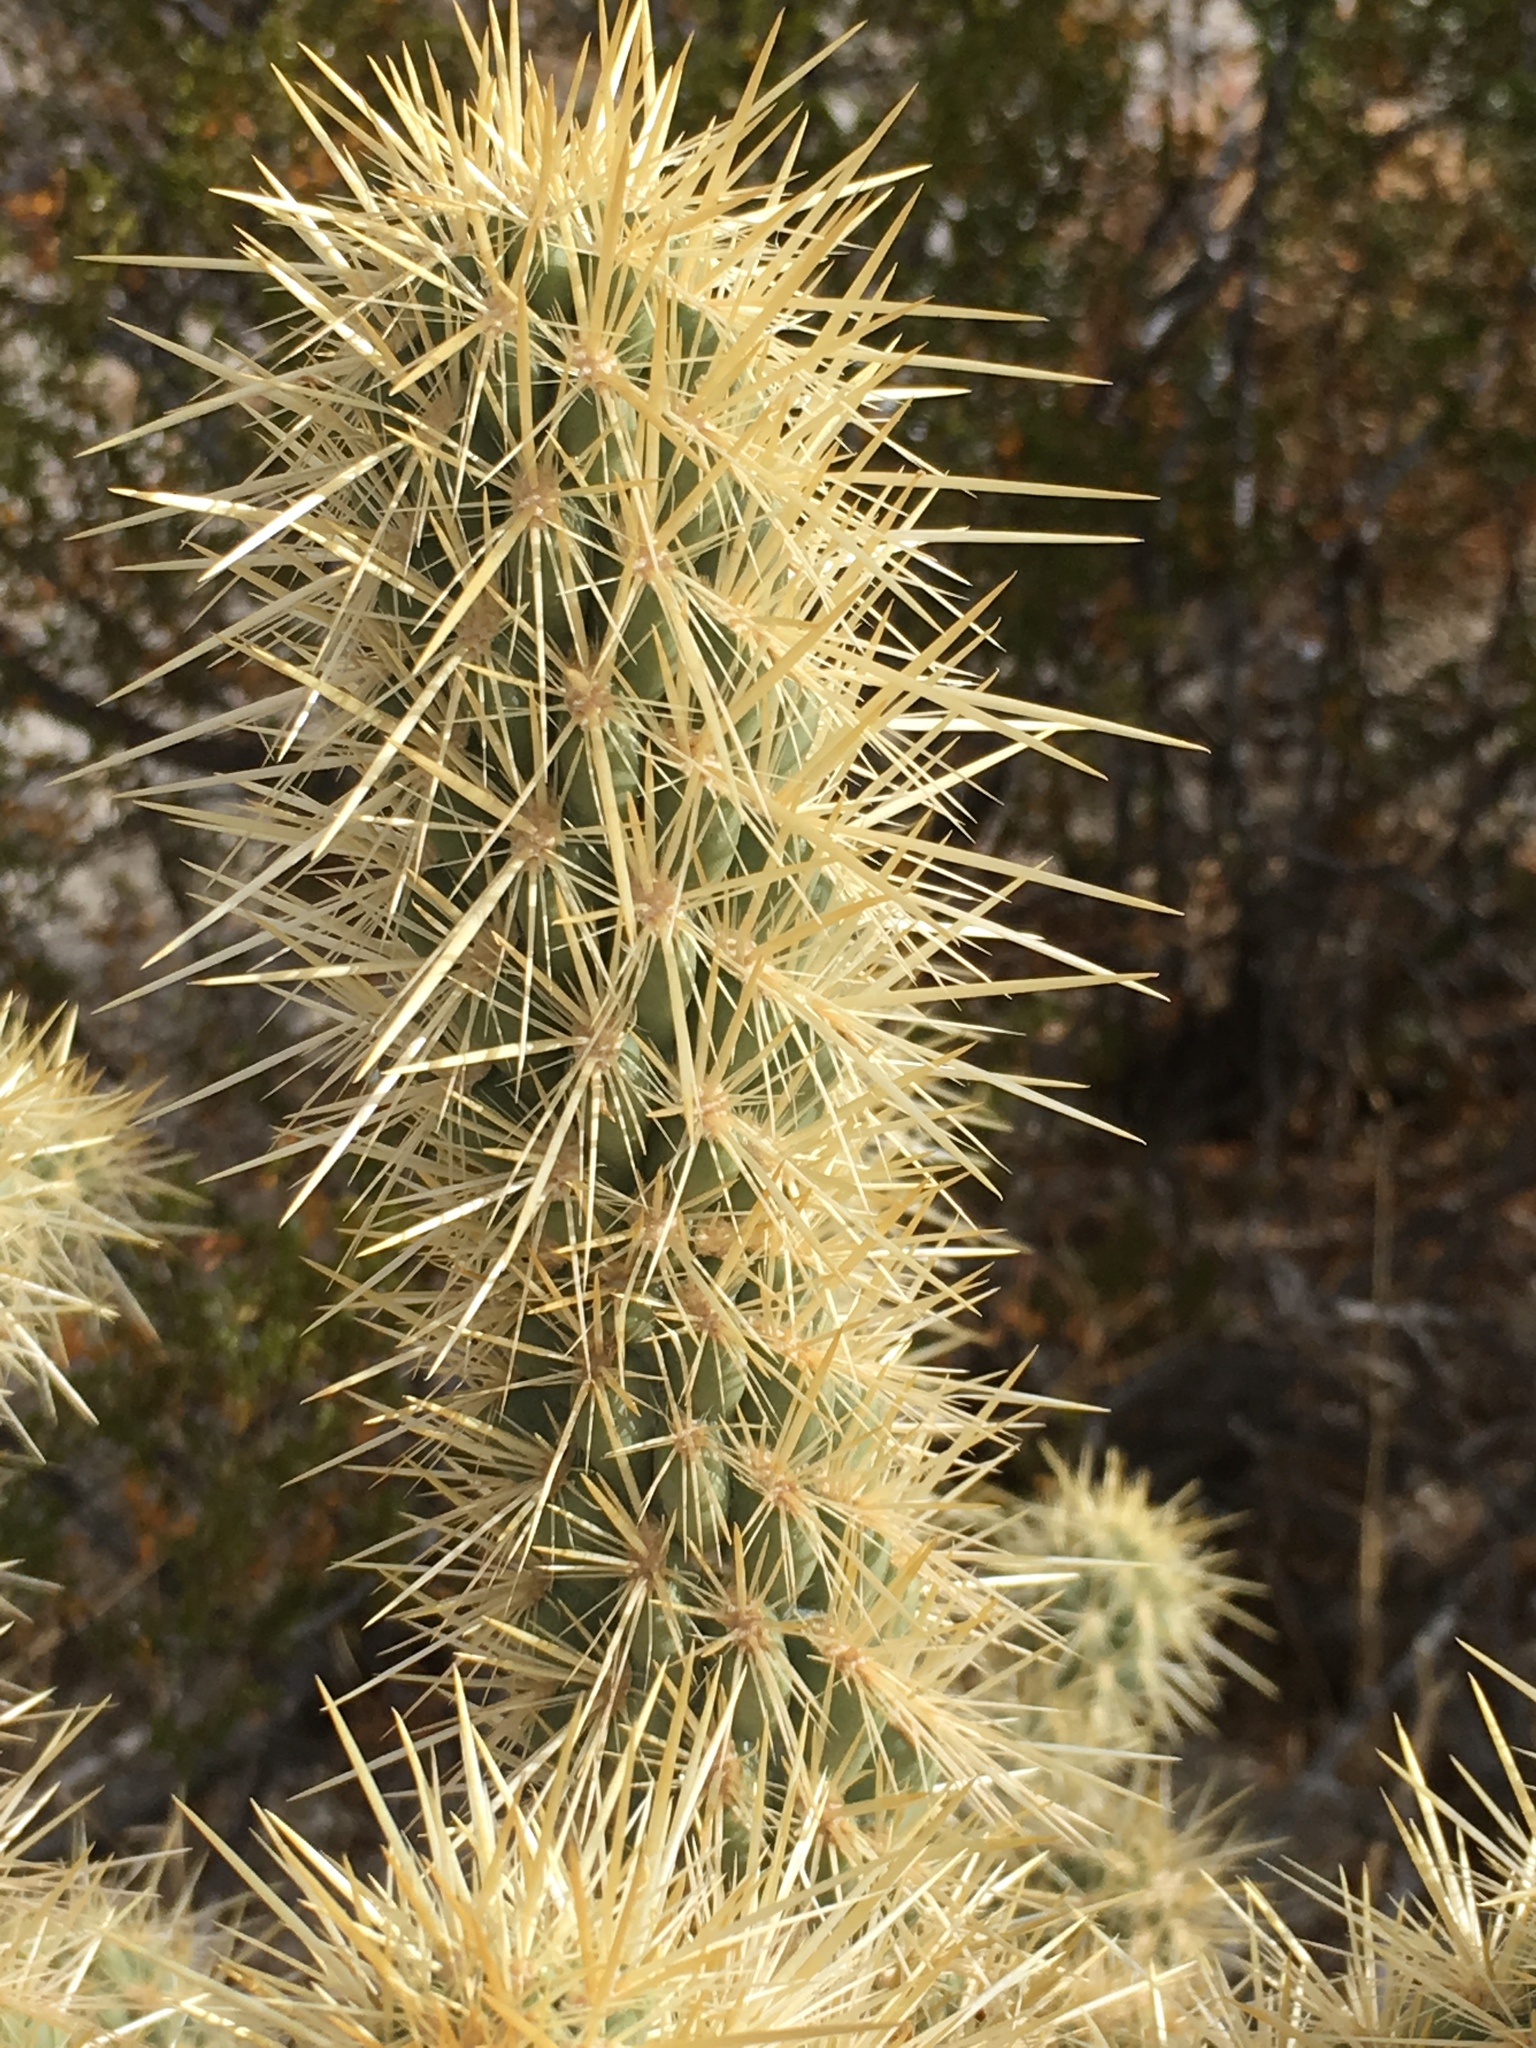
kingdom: Plantae
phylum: Tracheophyta
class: Magnoliopsida
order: Caryophyllales
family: Cactaceae
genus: Cylindropuntia
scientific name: Cylindropuntia ganderi
